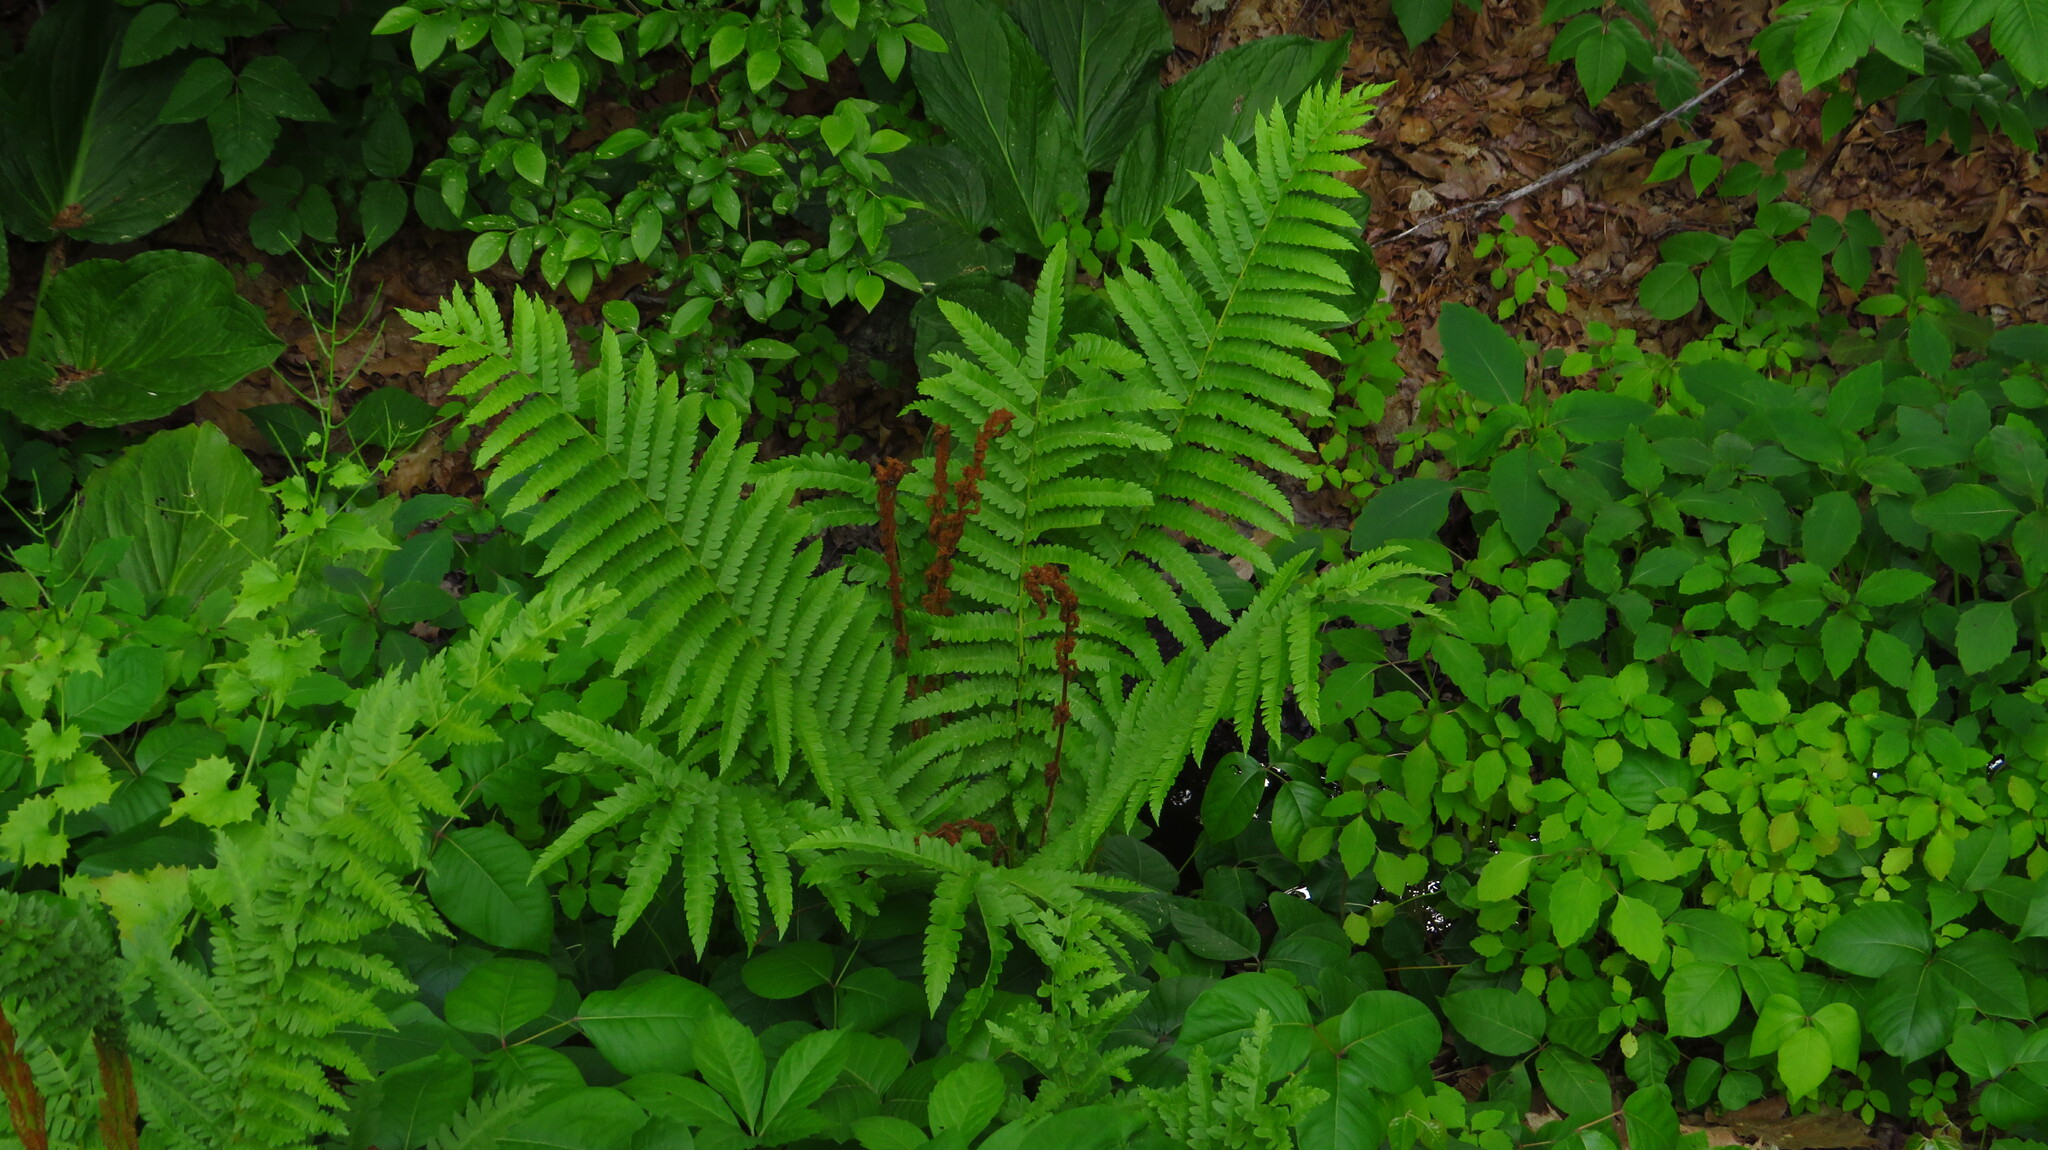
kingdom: Plantae
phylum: Tracheophyta
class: Polypodiopsida
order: Osmundales
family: Osmundaceae
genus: Osmundastrum
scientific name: Osmundastrum cinnamomeum
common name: Cinnamon fern
